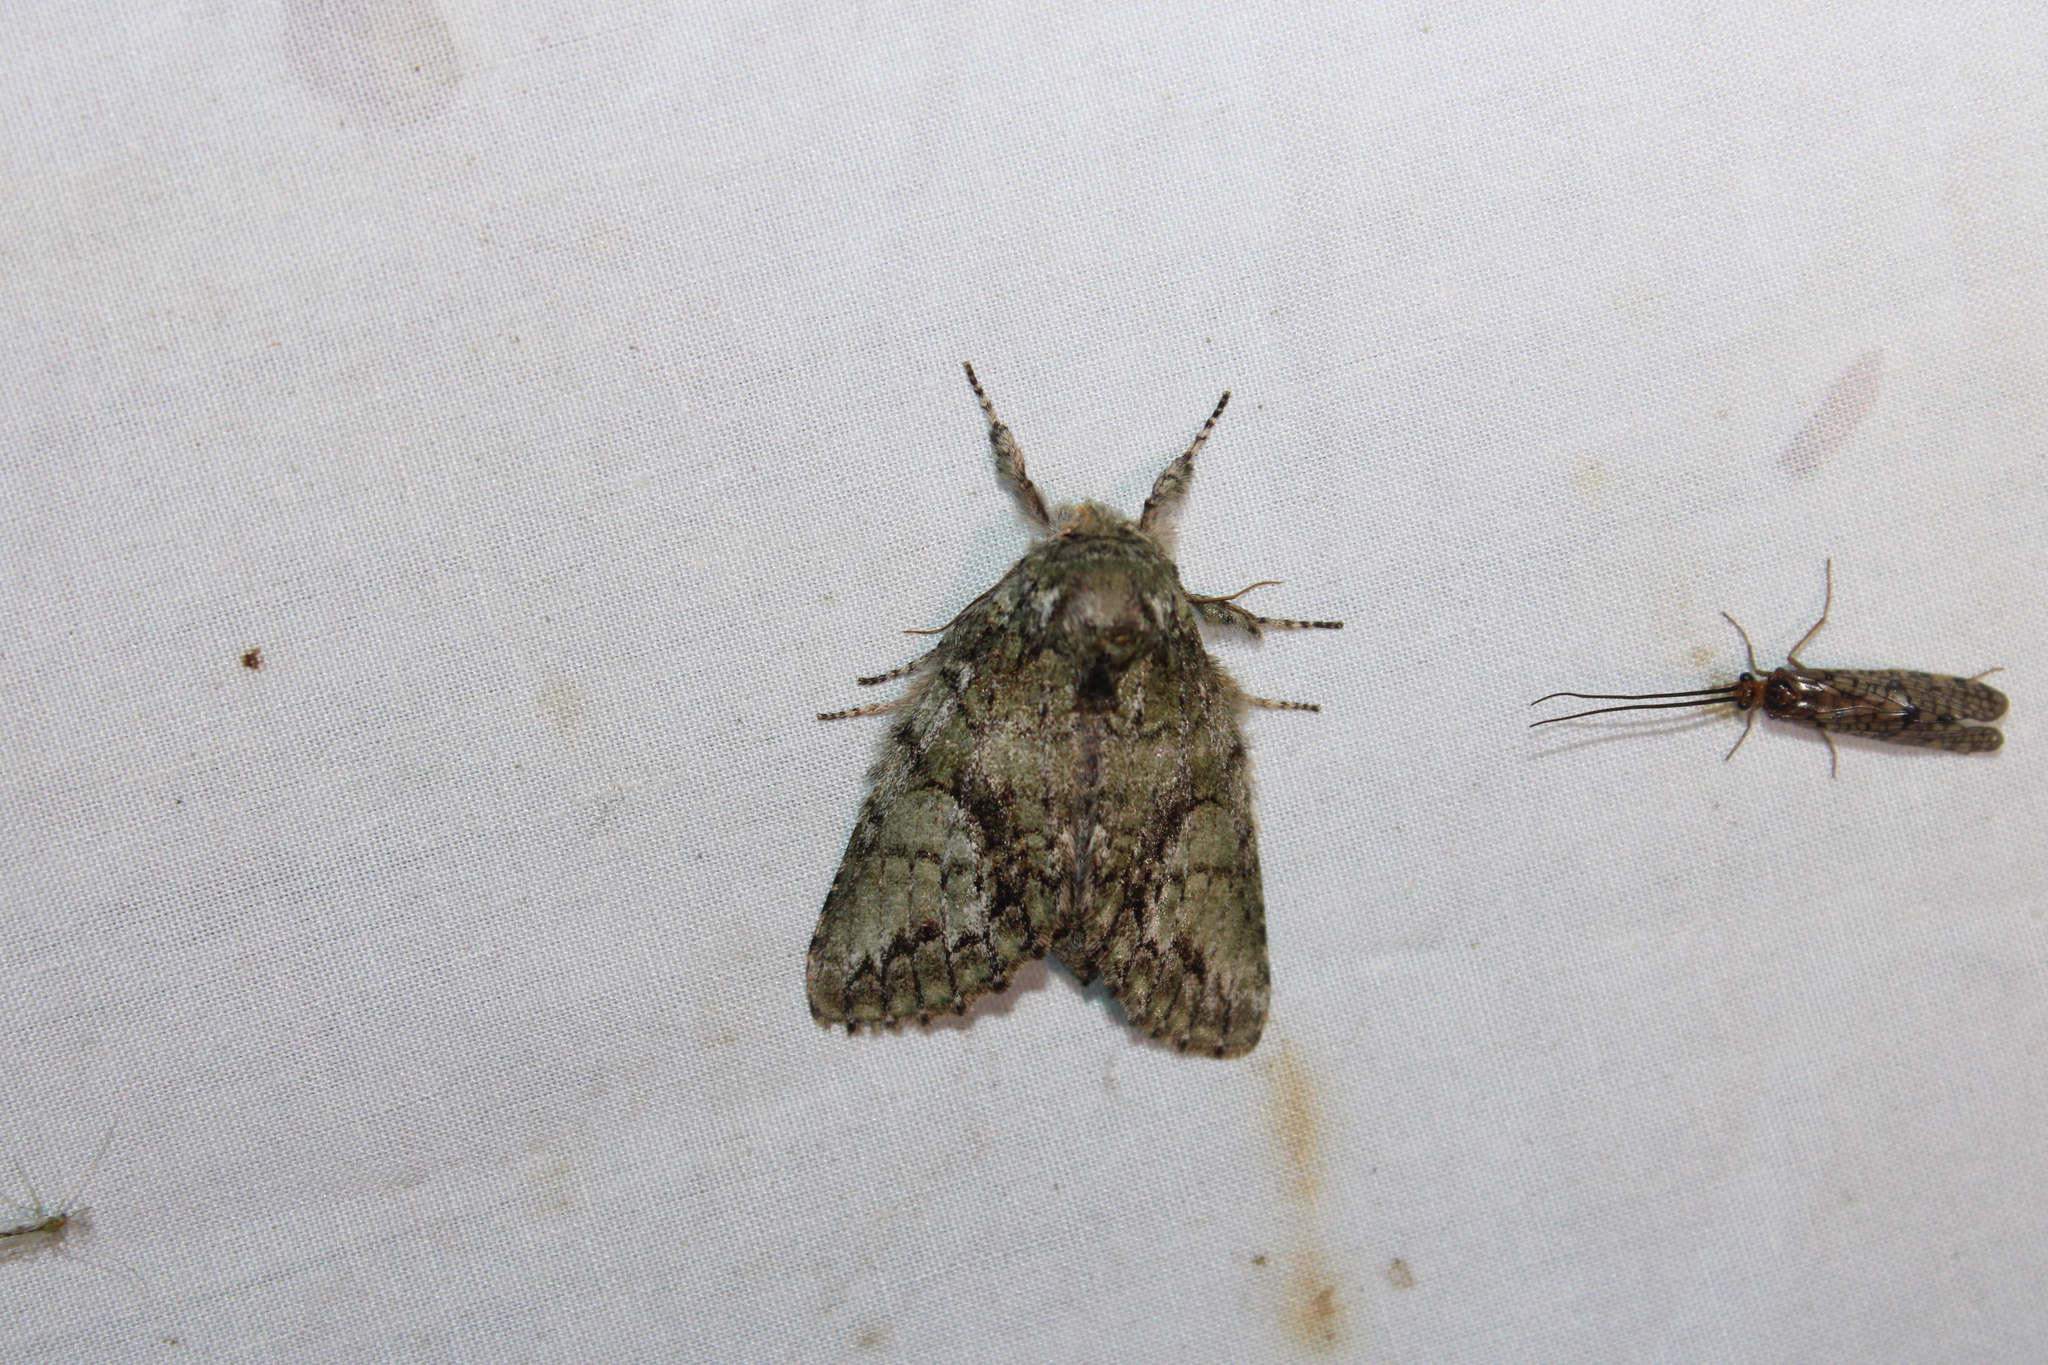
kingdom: Animalia
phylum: Arthropoda
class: Insecta
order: Lepidoptera
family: Notodontidae
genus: Heterocampa
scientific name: Heterocampa
